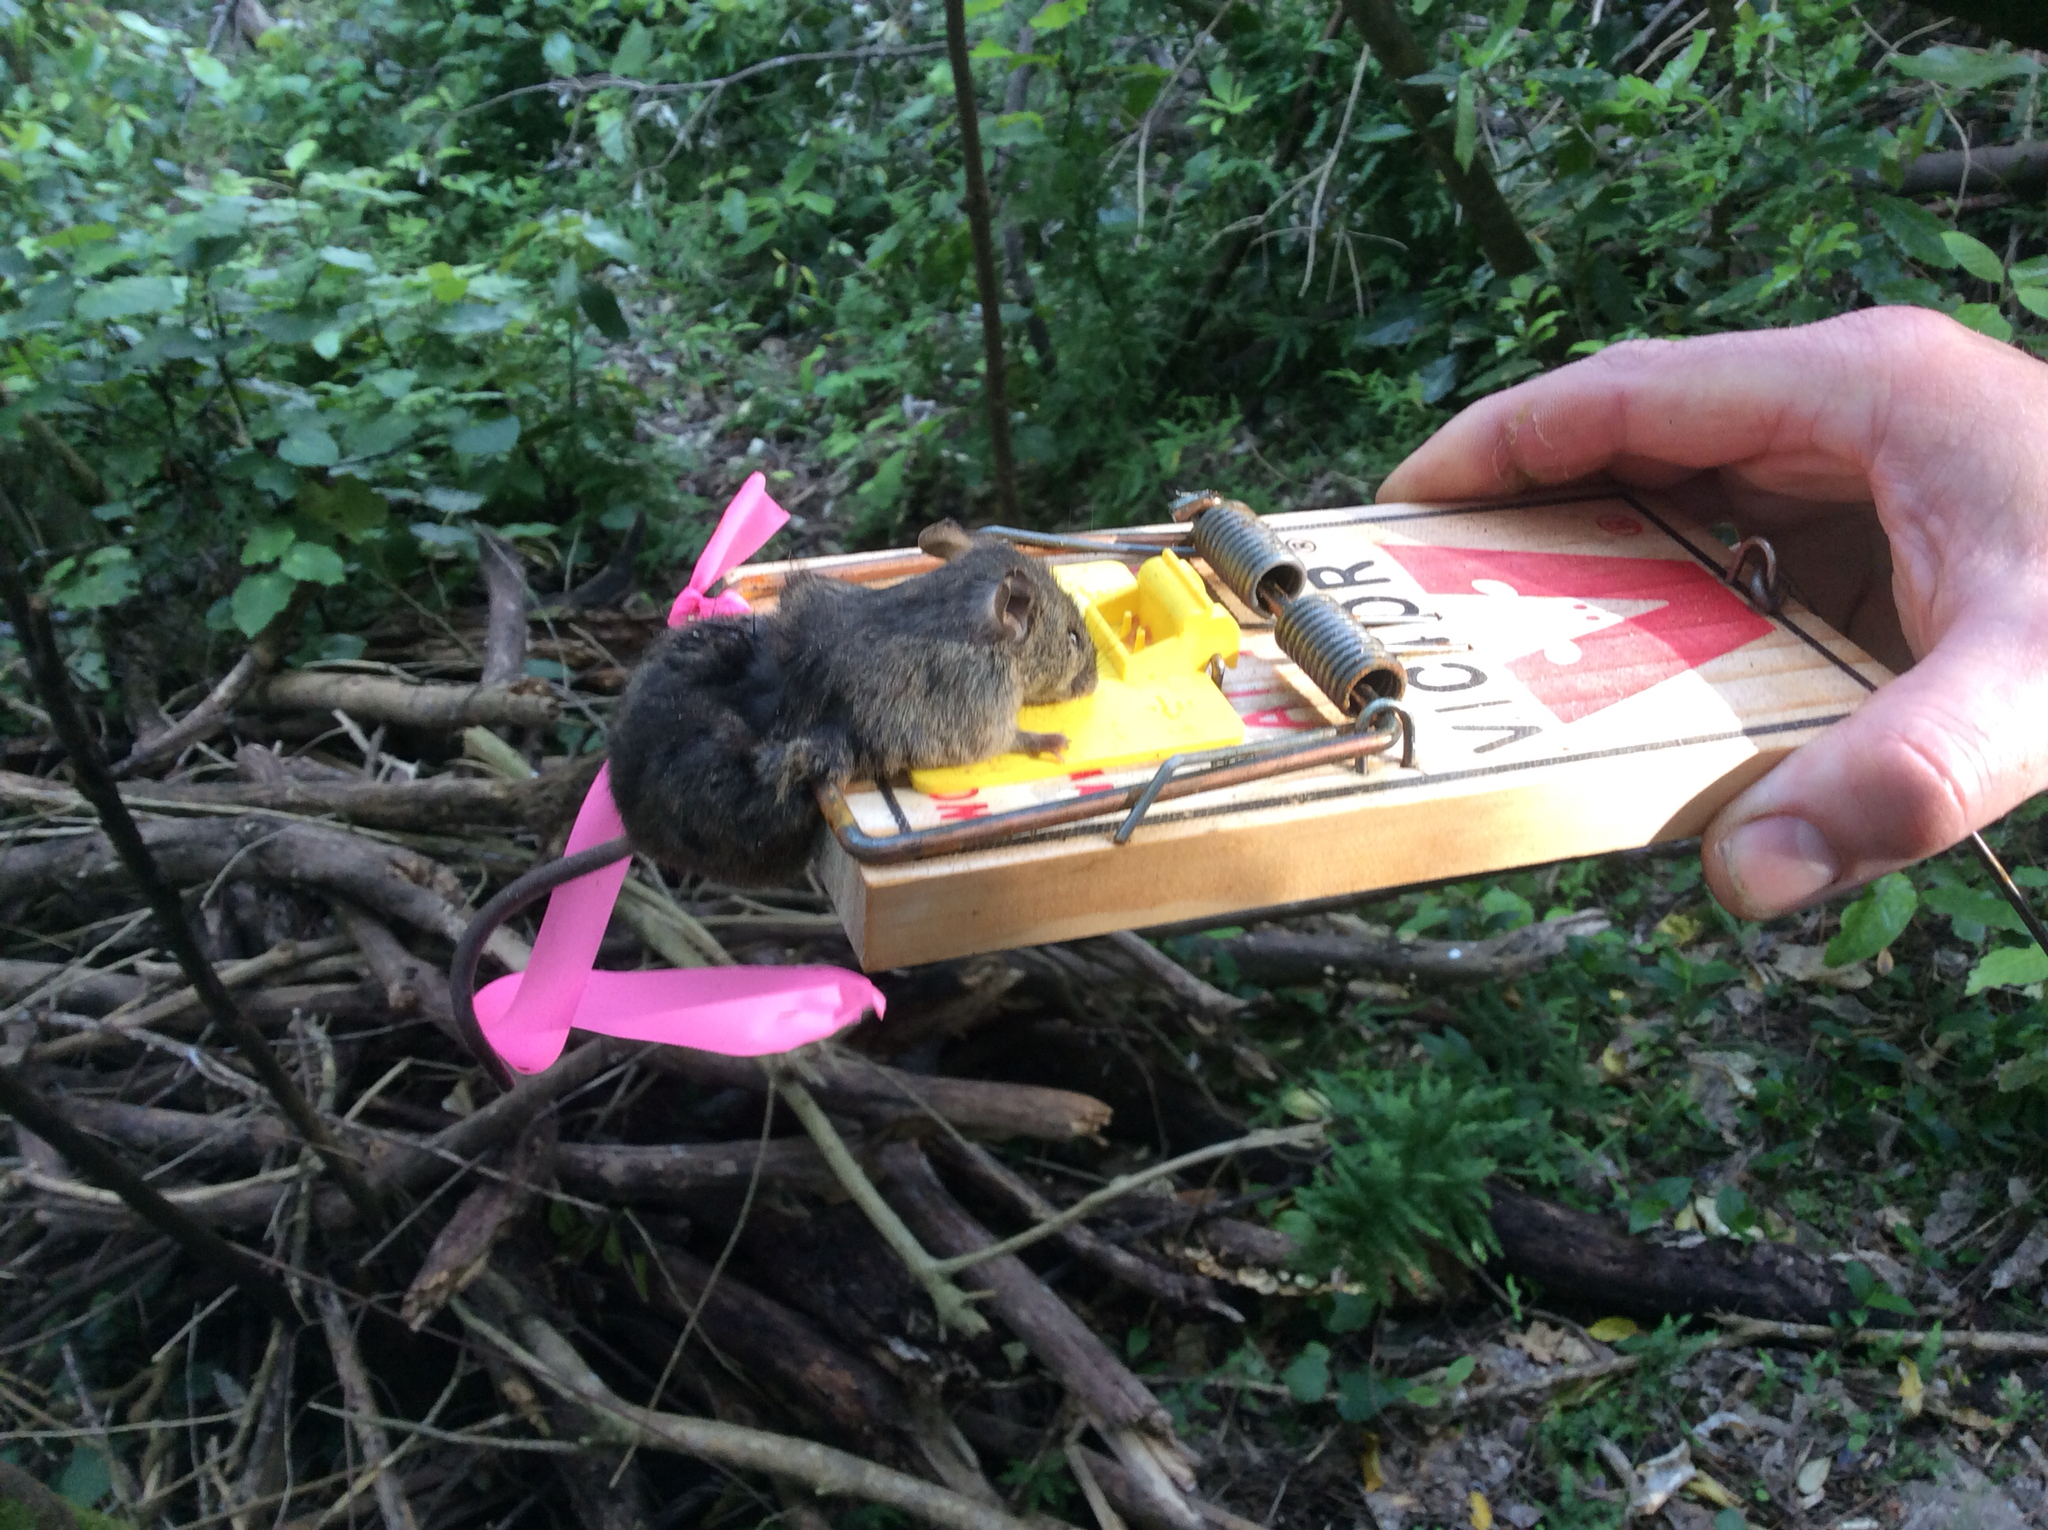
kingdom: Animalia
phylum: Chordata
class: Mammalia
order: Rodentia
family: Muridae
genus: Mus
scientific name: Mus musculus
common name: House mouse
